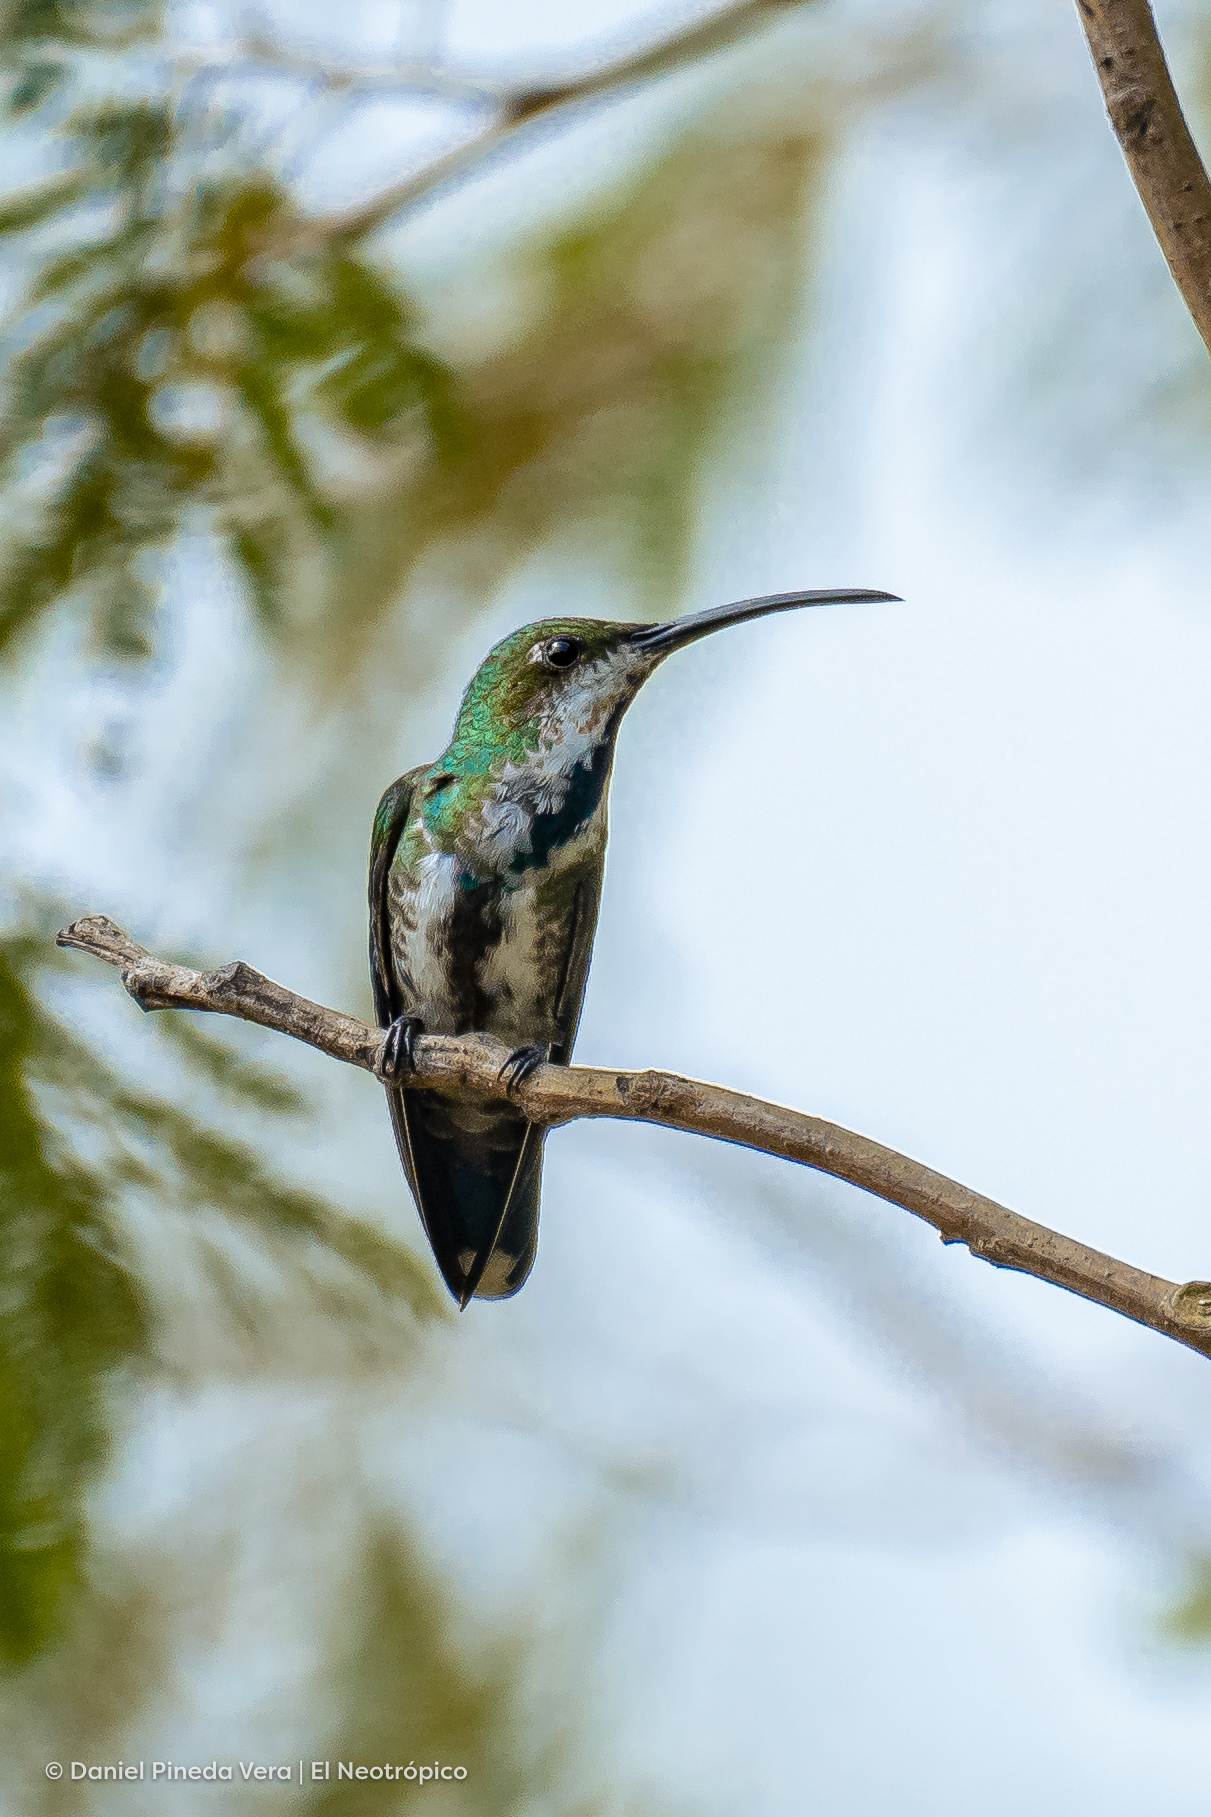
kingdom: Animalia
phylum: Chordata
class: Aves
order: Apodiformes
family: Trochilidae
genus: Anthracothorax
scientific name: Anthracothorax prevostii
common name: Green-breasted mango
